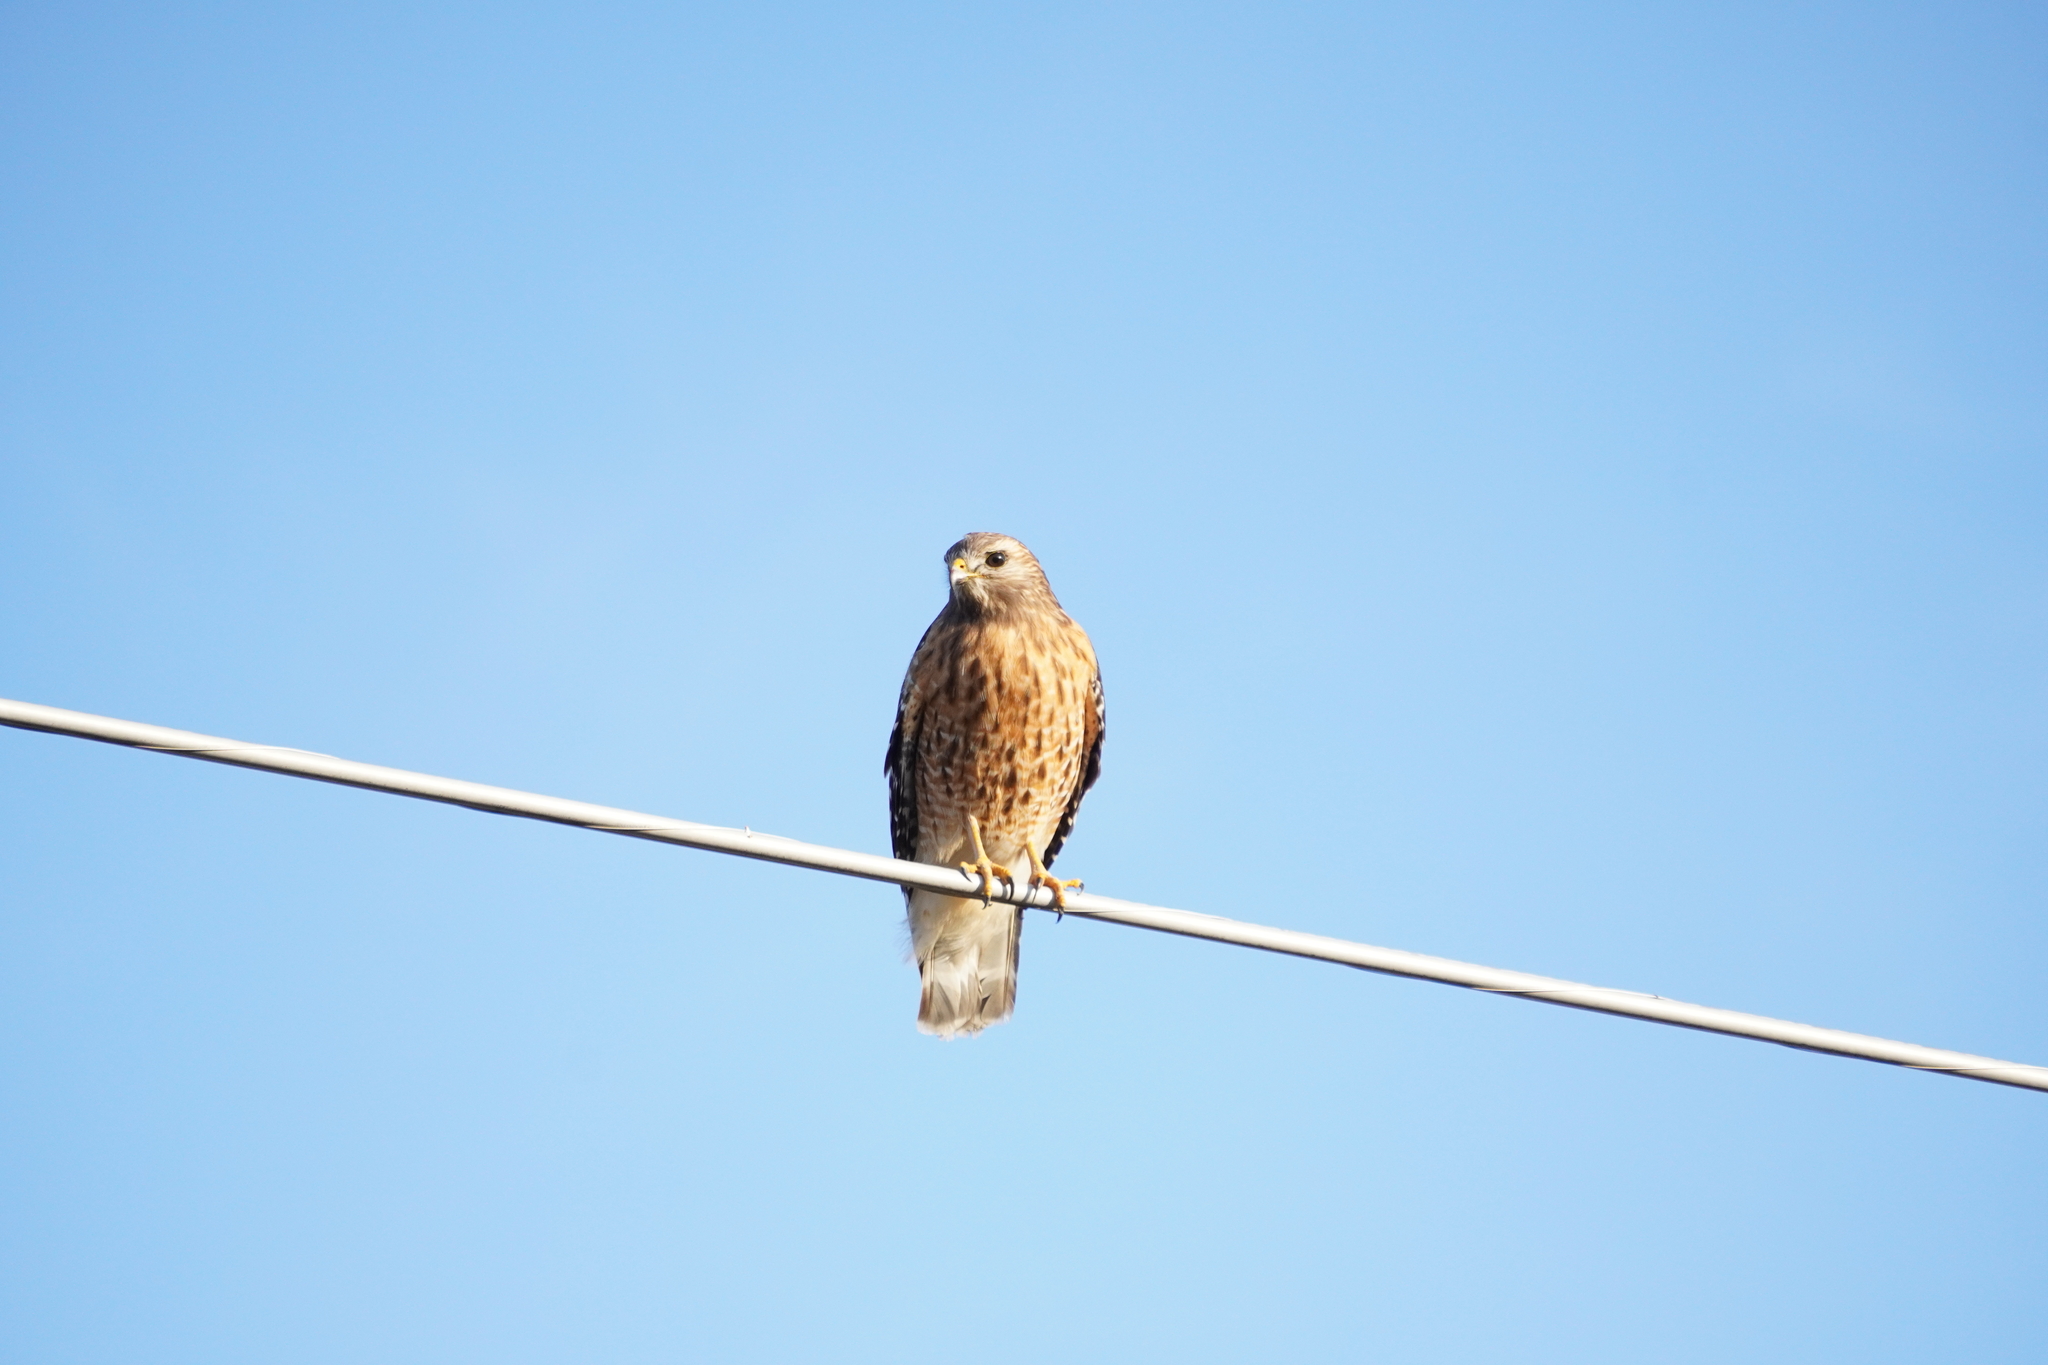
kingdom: Animalia
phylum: Chordata
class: Aves
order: Accipitriformes
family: Accipitridae
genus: Buteo
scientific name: Buteo lineatus
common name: Red-shouldered hawk
